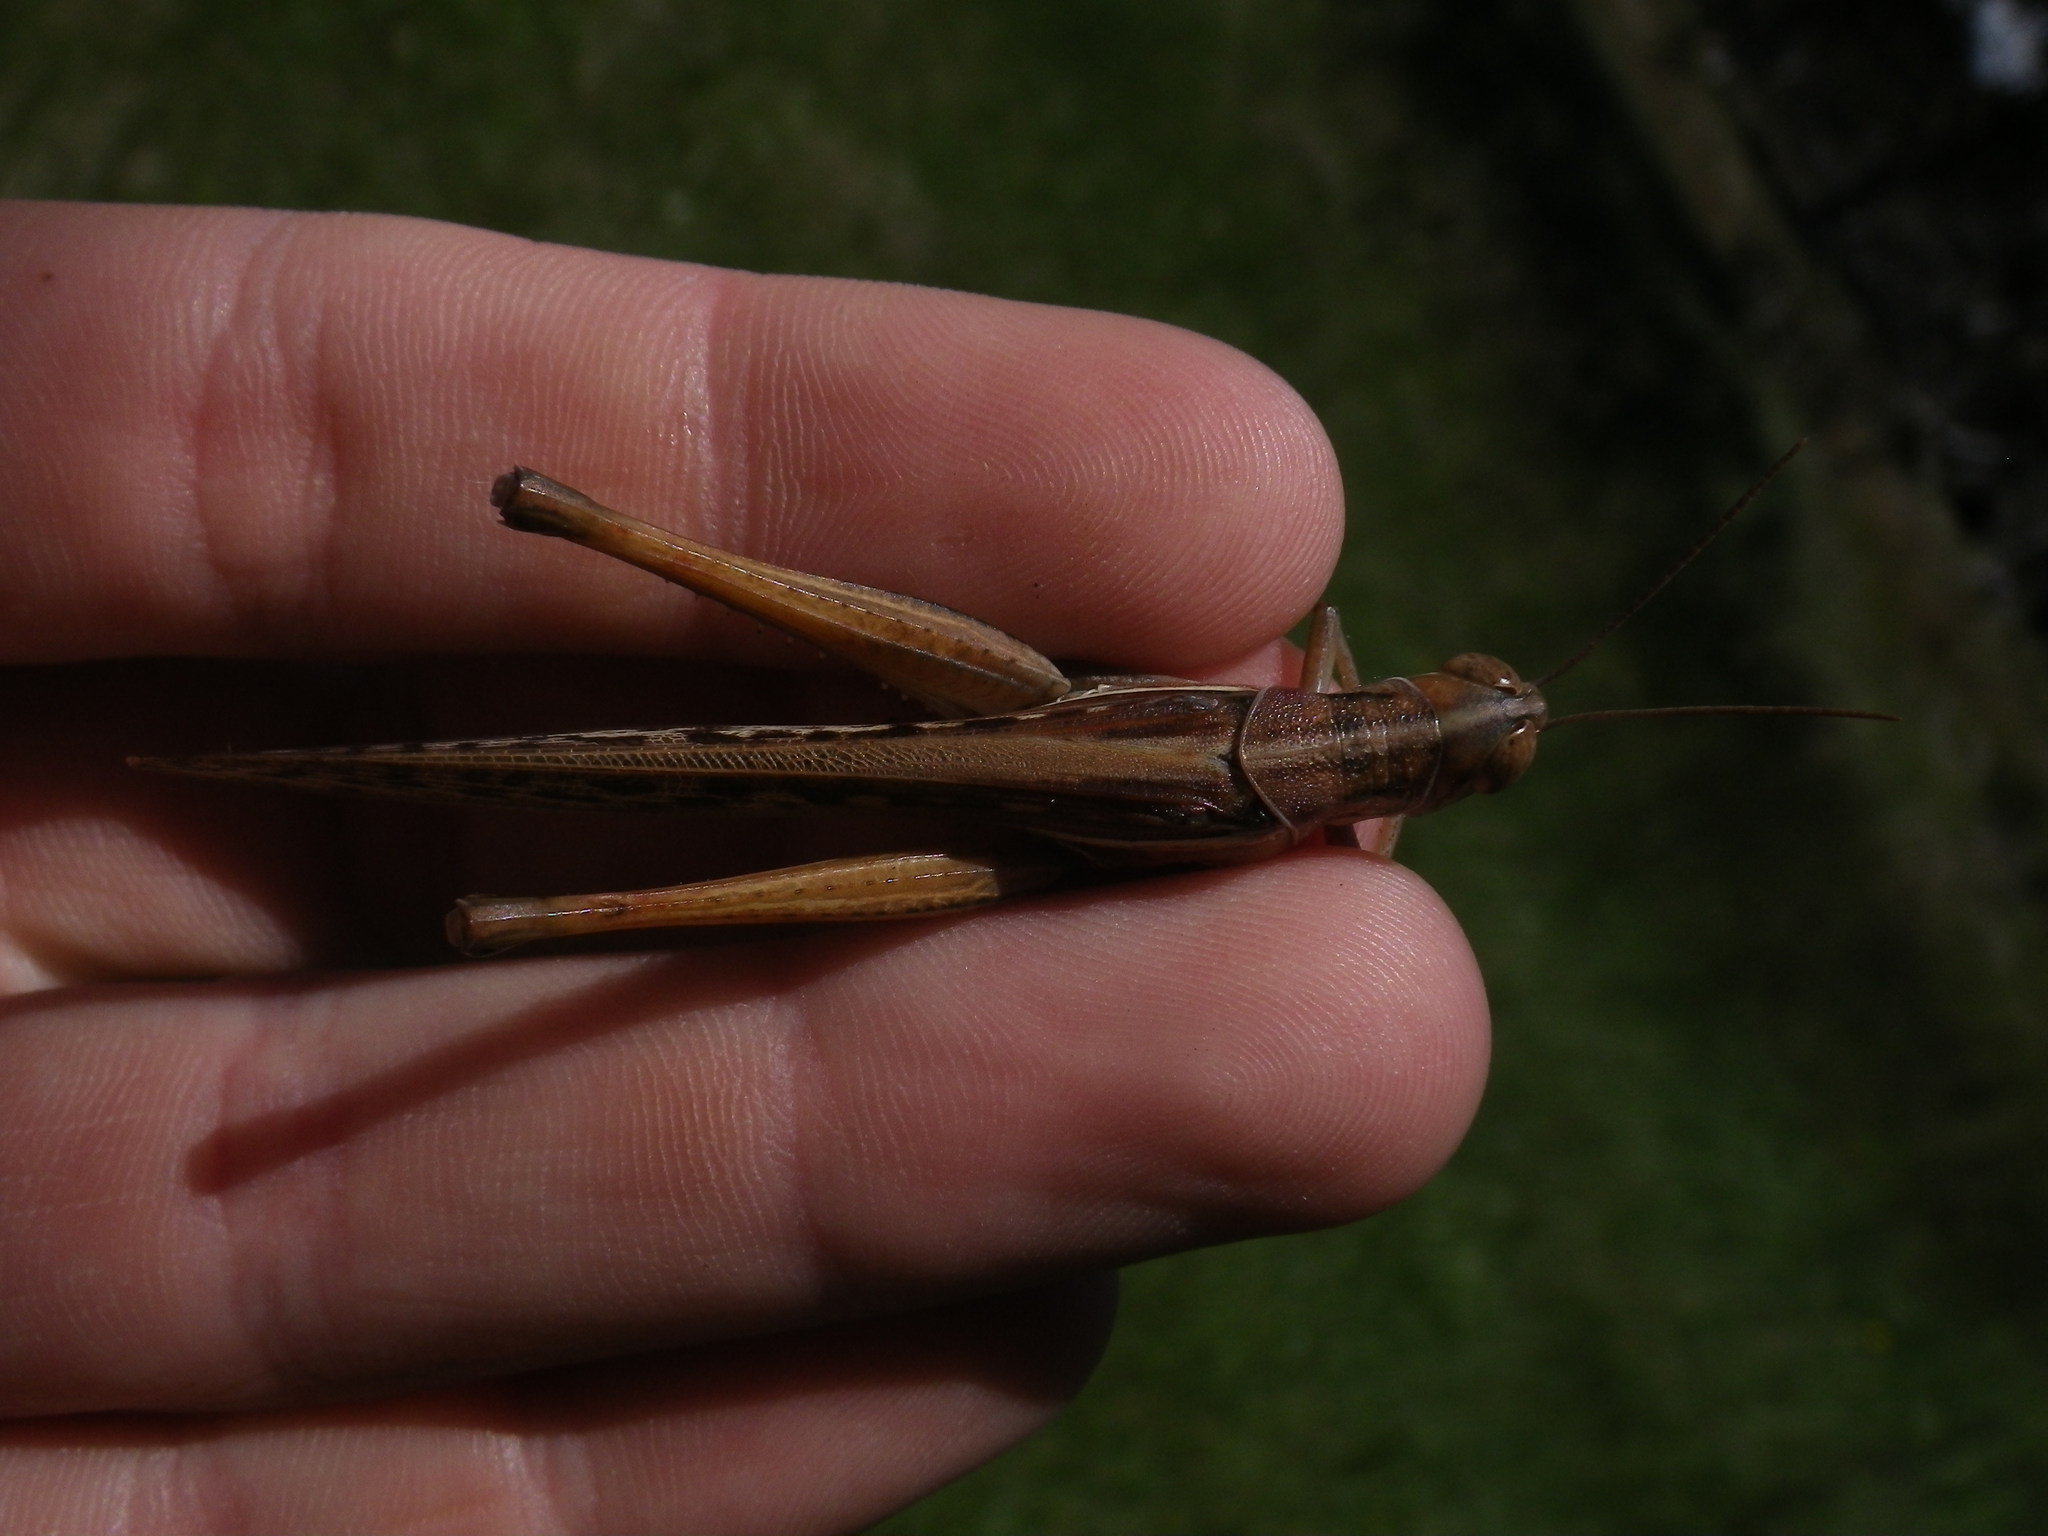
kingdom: Animalia
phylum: Arthropoda
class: Insecta
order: Orthoptera
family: Acrididae
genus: Austracris
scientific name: Austracris guttulosa
